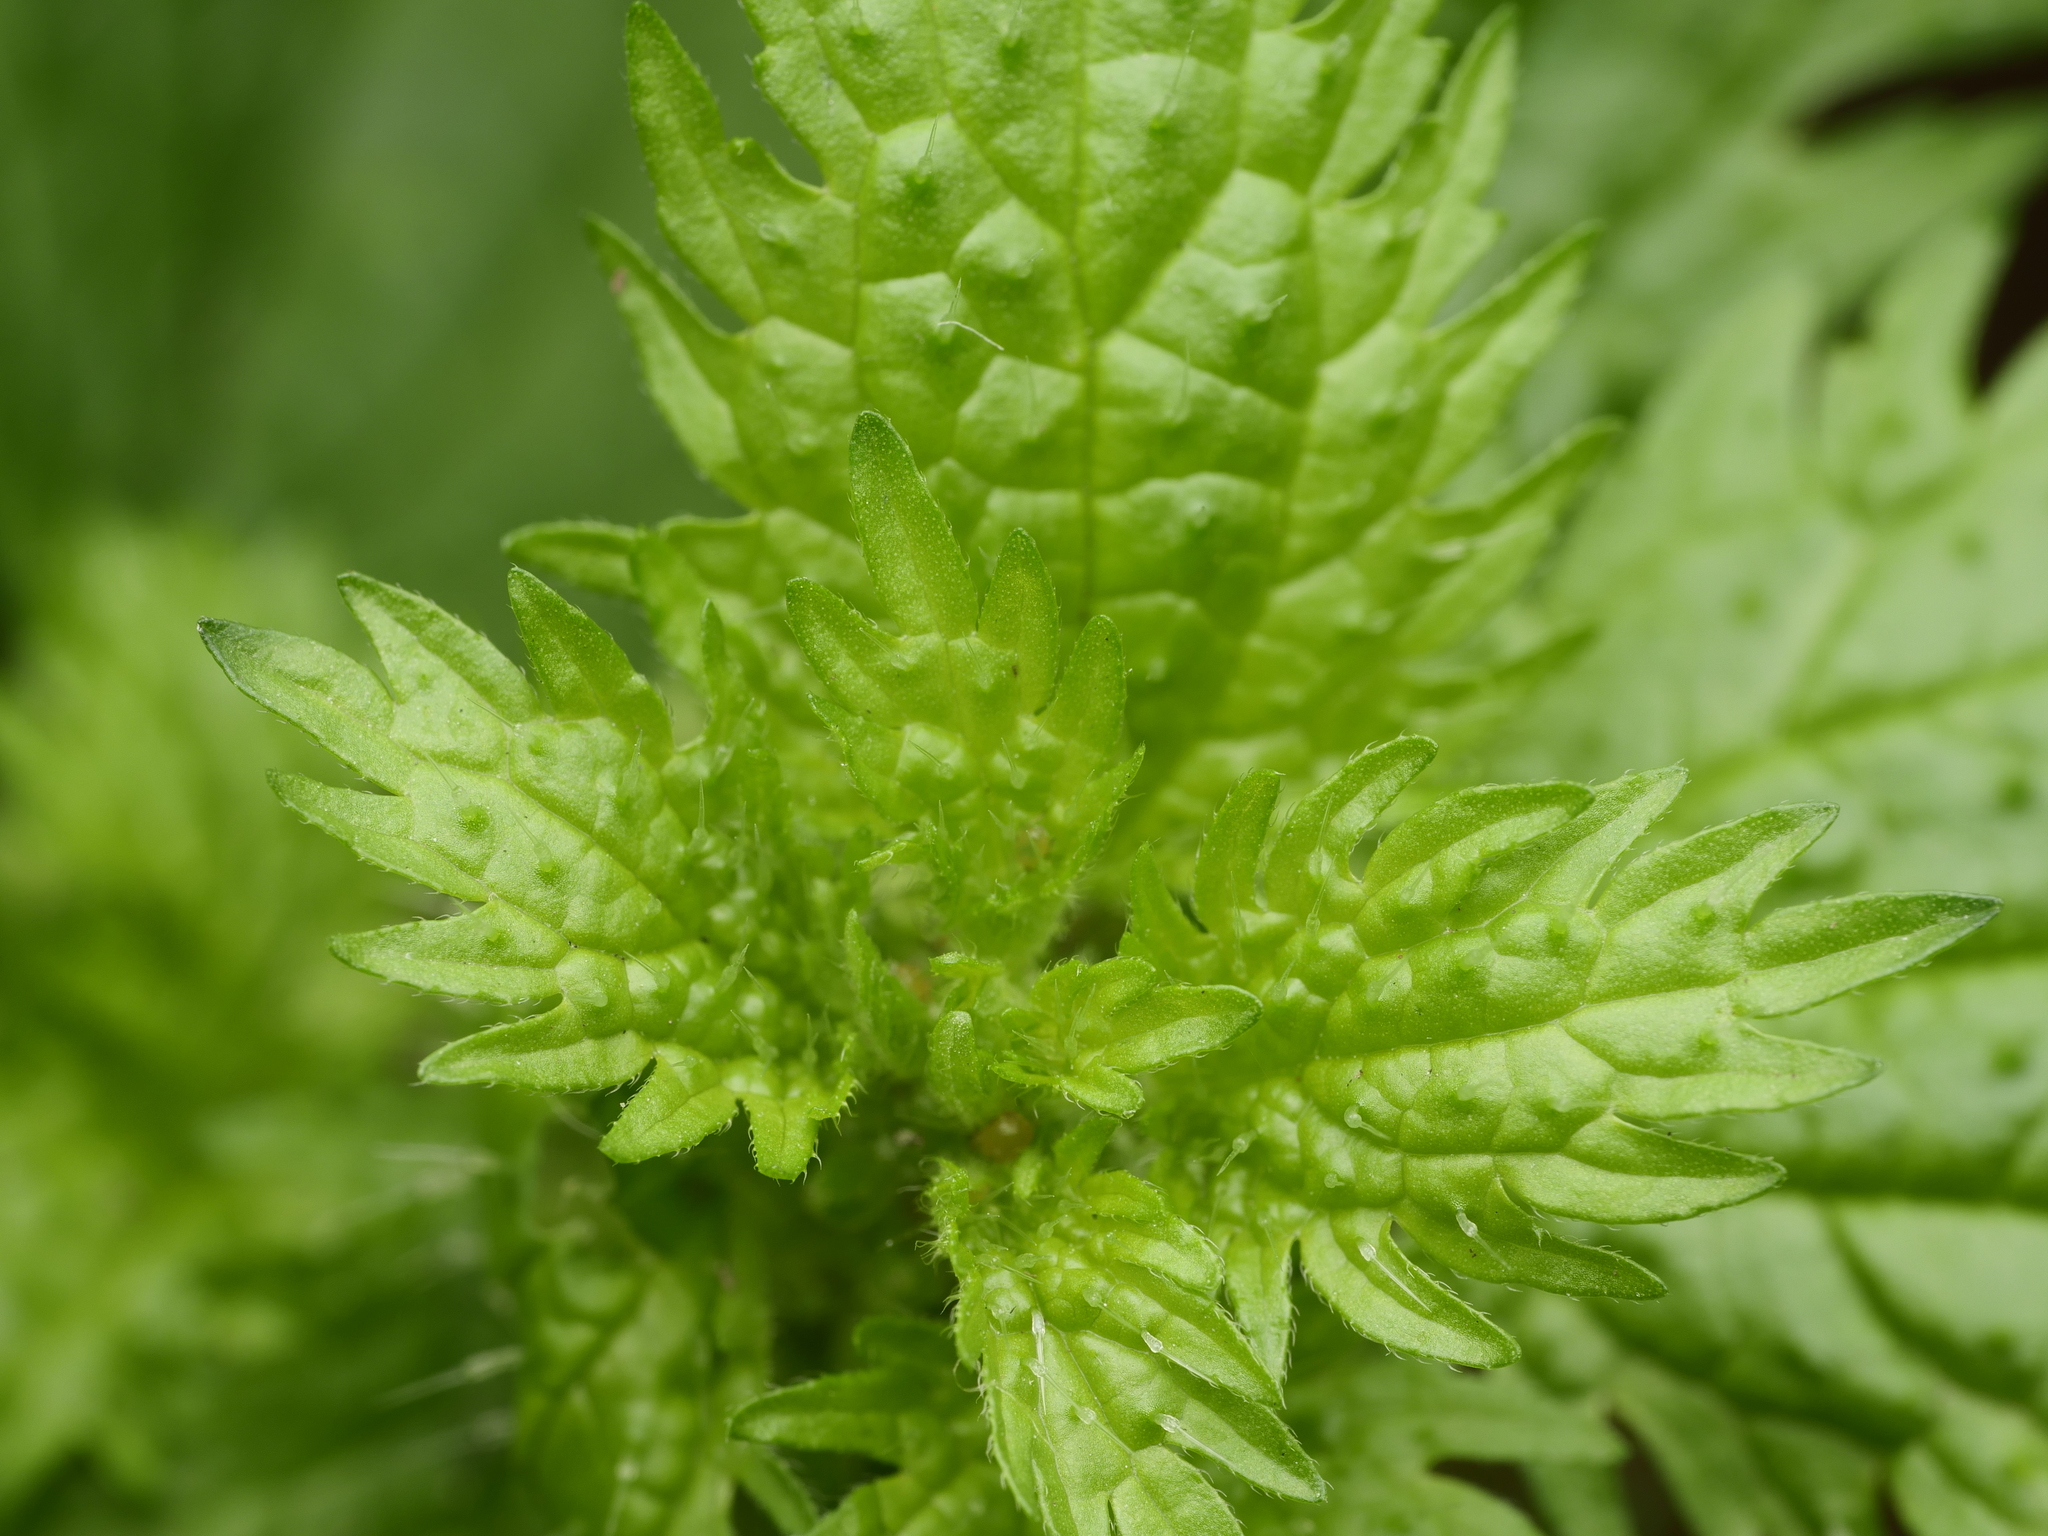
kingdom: Plantae
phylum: Tracheophyta
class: Magnoliopsida
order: Rosales
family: Urticaceae
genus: Urtica
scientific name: Urtica urens
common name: Dwarf nettle
